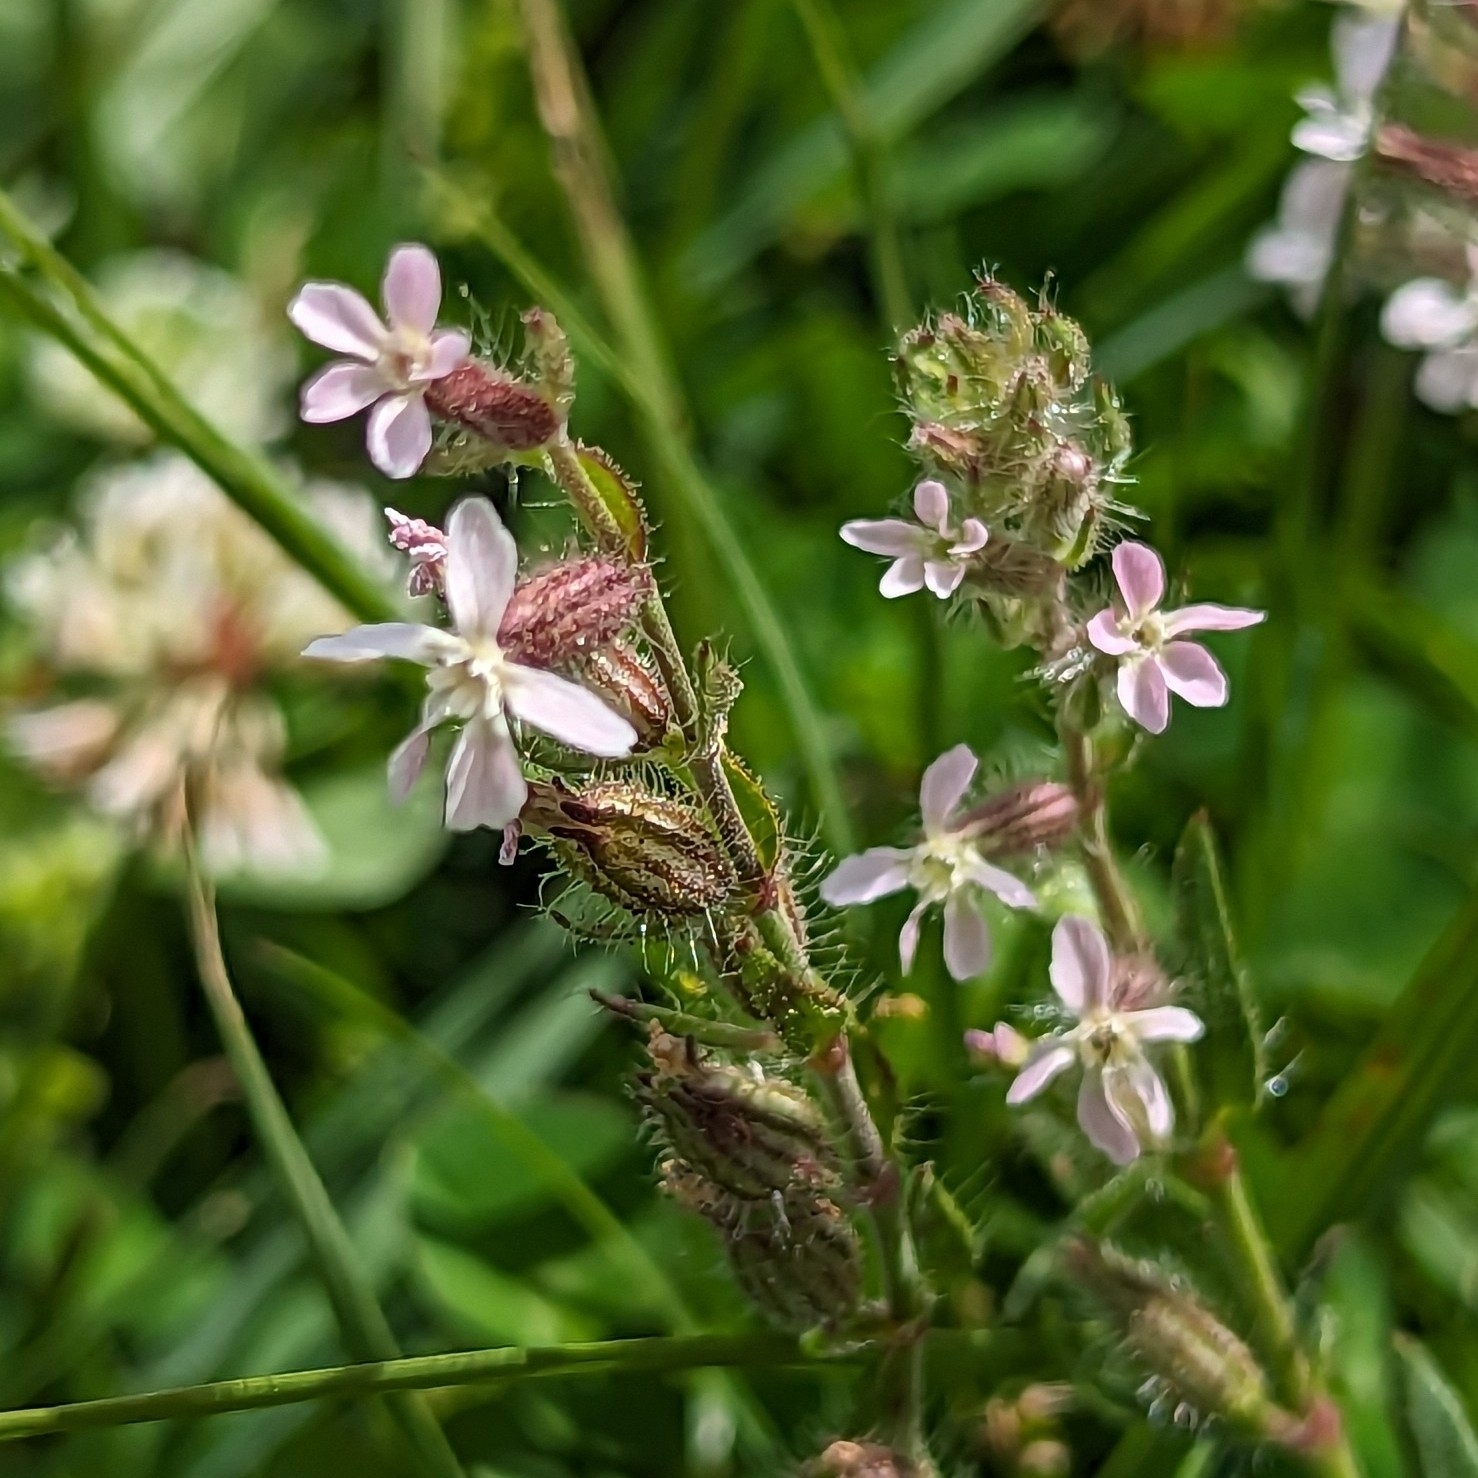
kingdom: Plantae
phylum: Tracheophyta
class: Magnoliopsida
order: Caryophyllales
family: Caryophyllaceae
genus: Silene
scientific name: Silene gallica
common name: Small-flowered catchfly
